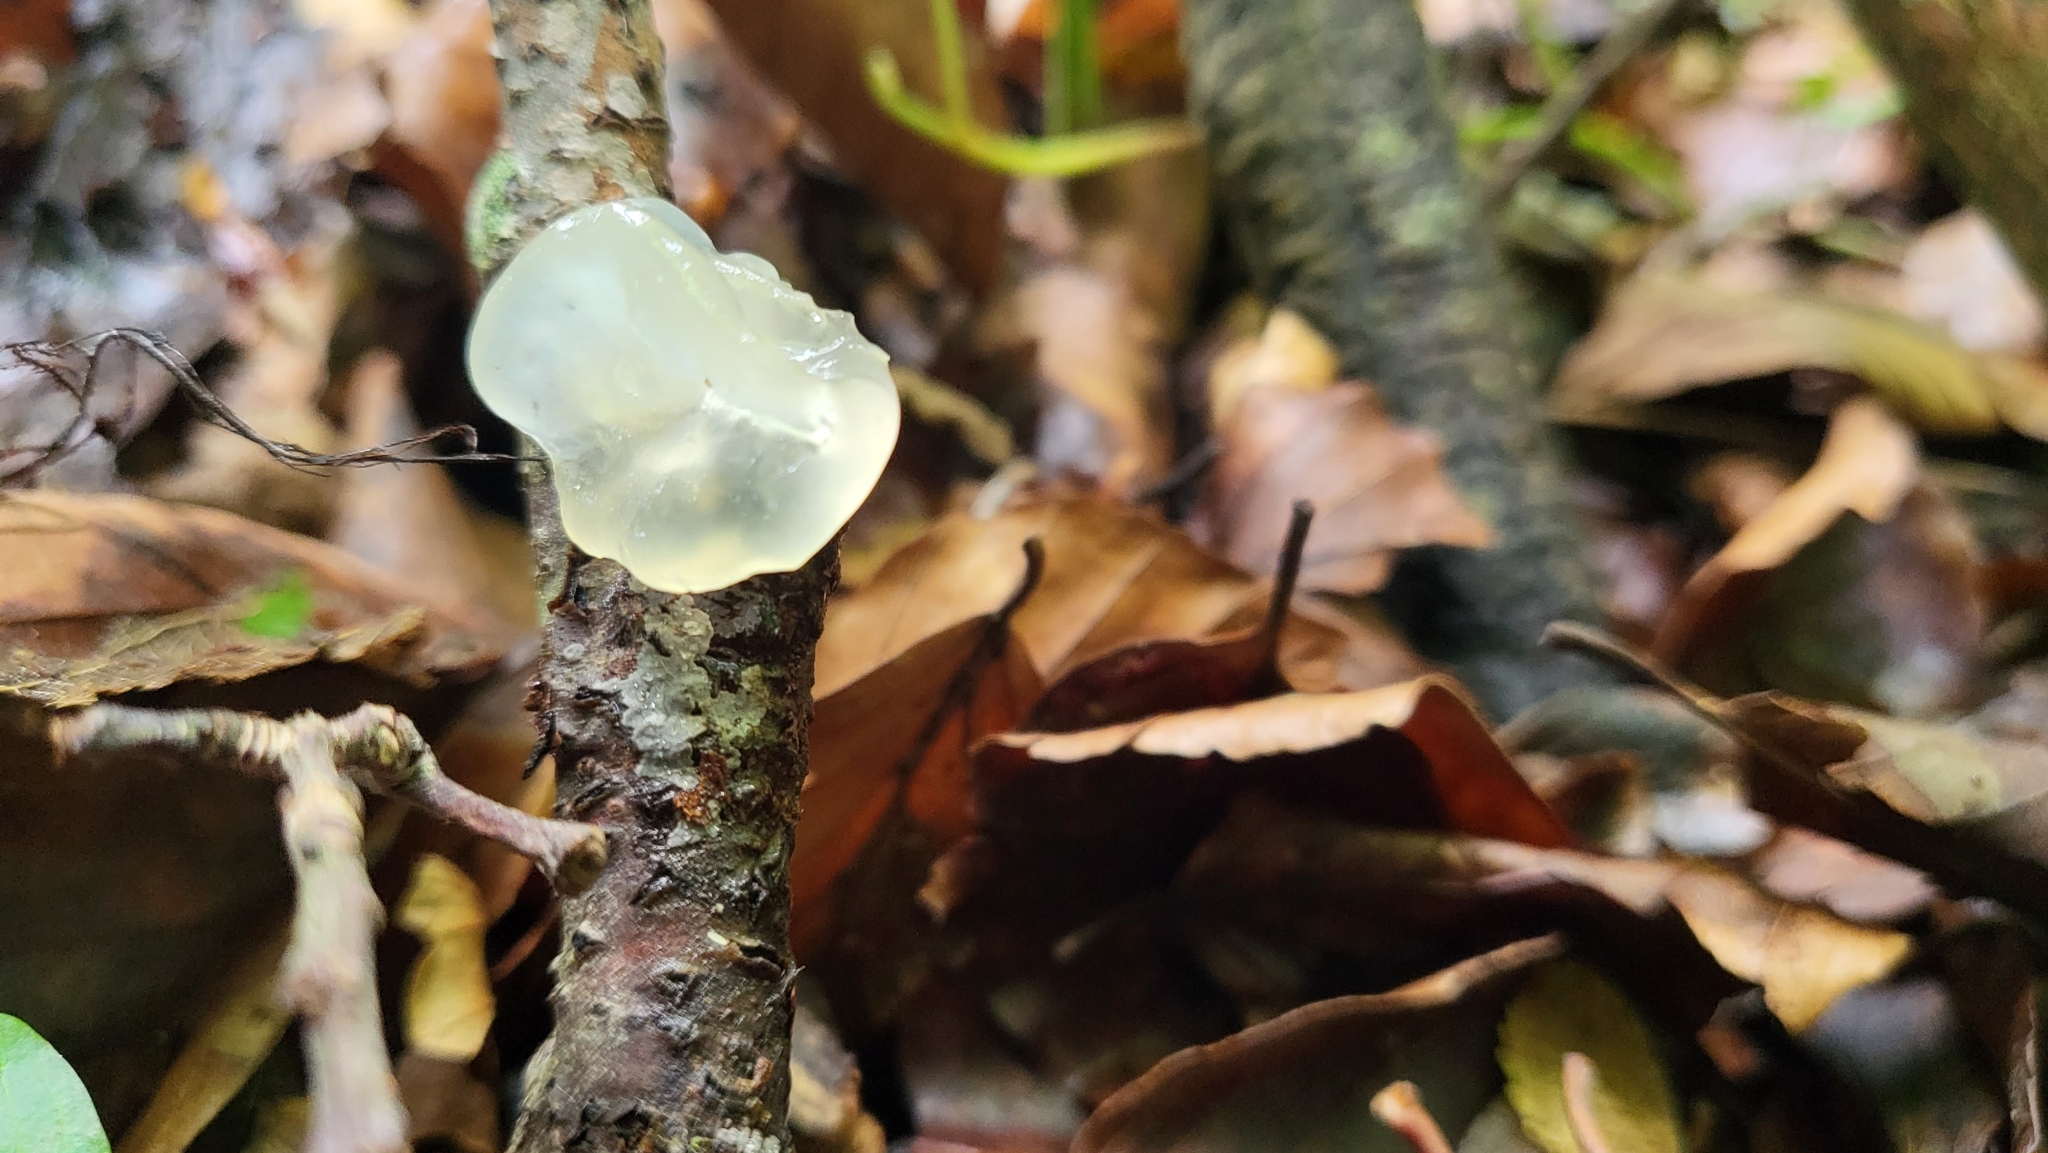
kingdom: Fungi
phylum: Basidiomycota
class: Tremellomycetes
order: Tremellales
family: Tremellaceae
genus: Tremella
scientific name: Tremella mesenterica
